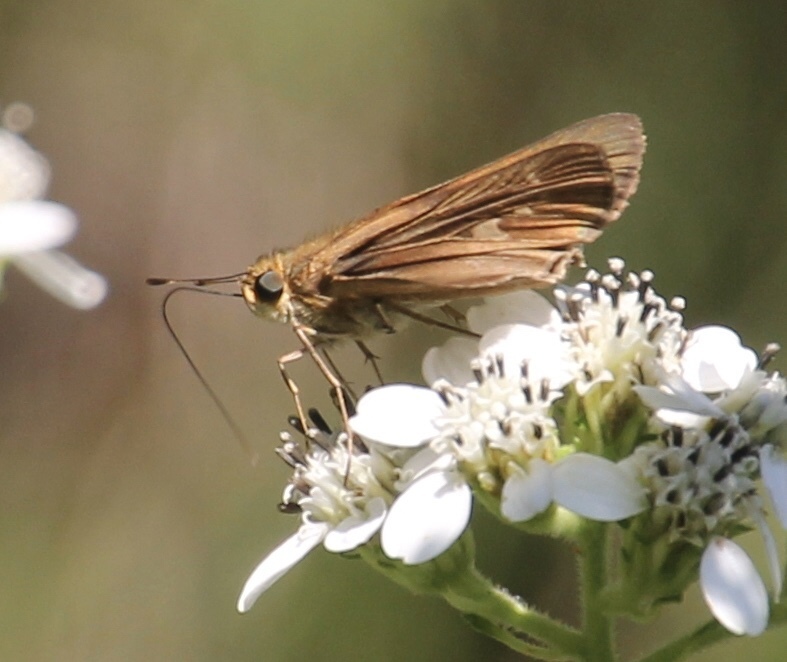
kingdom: Animalia
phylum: Arthropoda
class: Insecta
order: Lepidoptera
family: Hesperiidae
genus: Panoquina
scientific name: Panoquina ocola
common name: Ocola skipper
